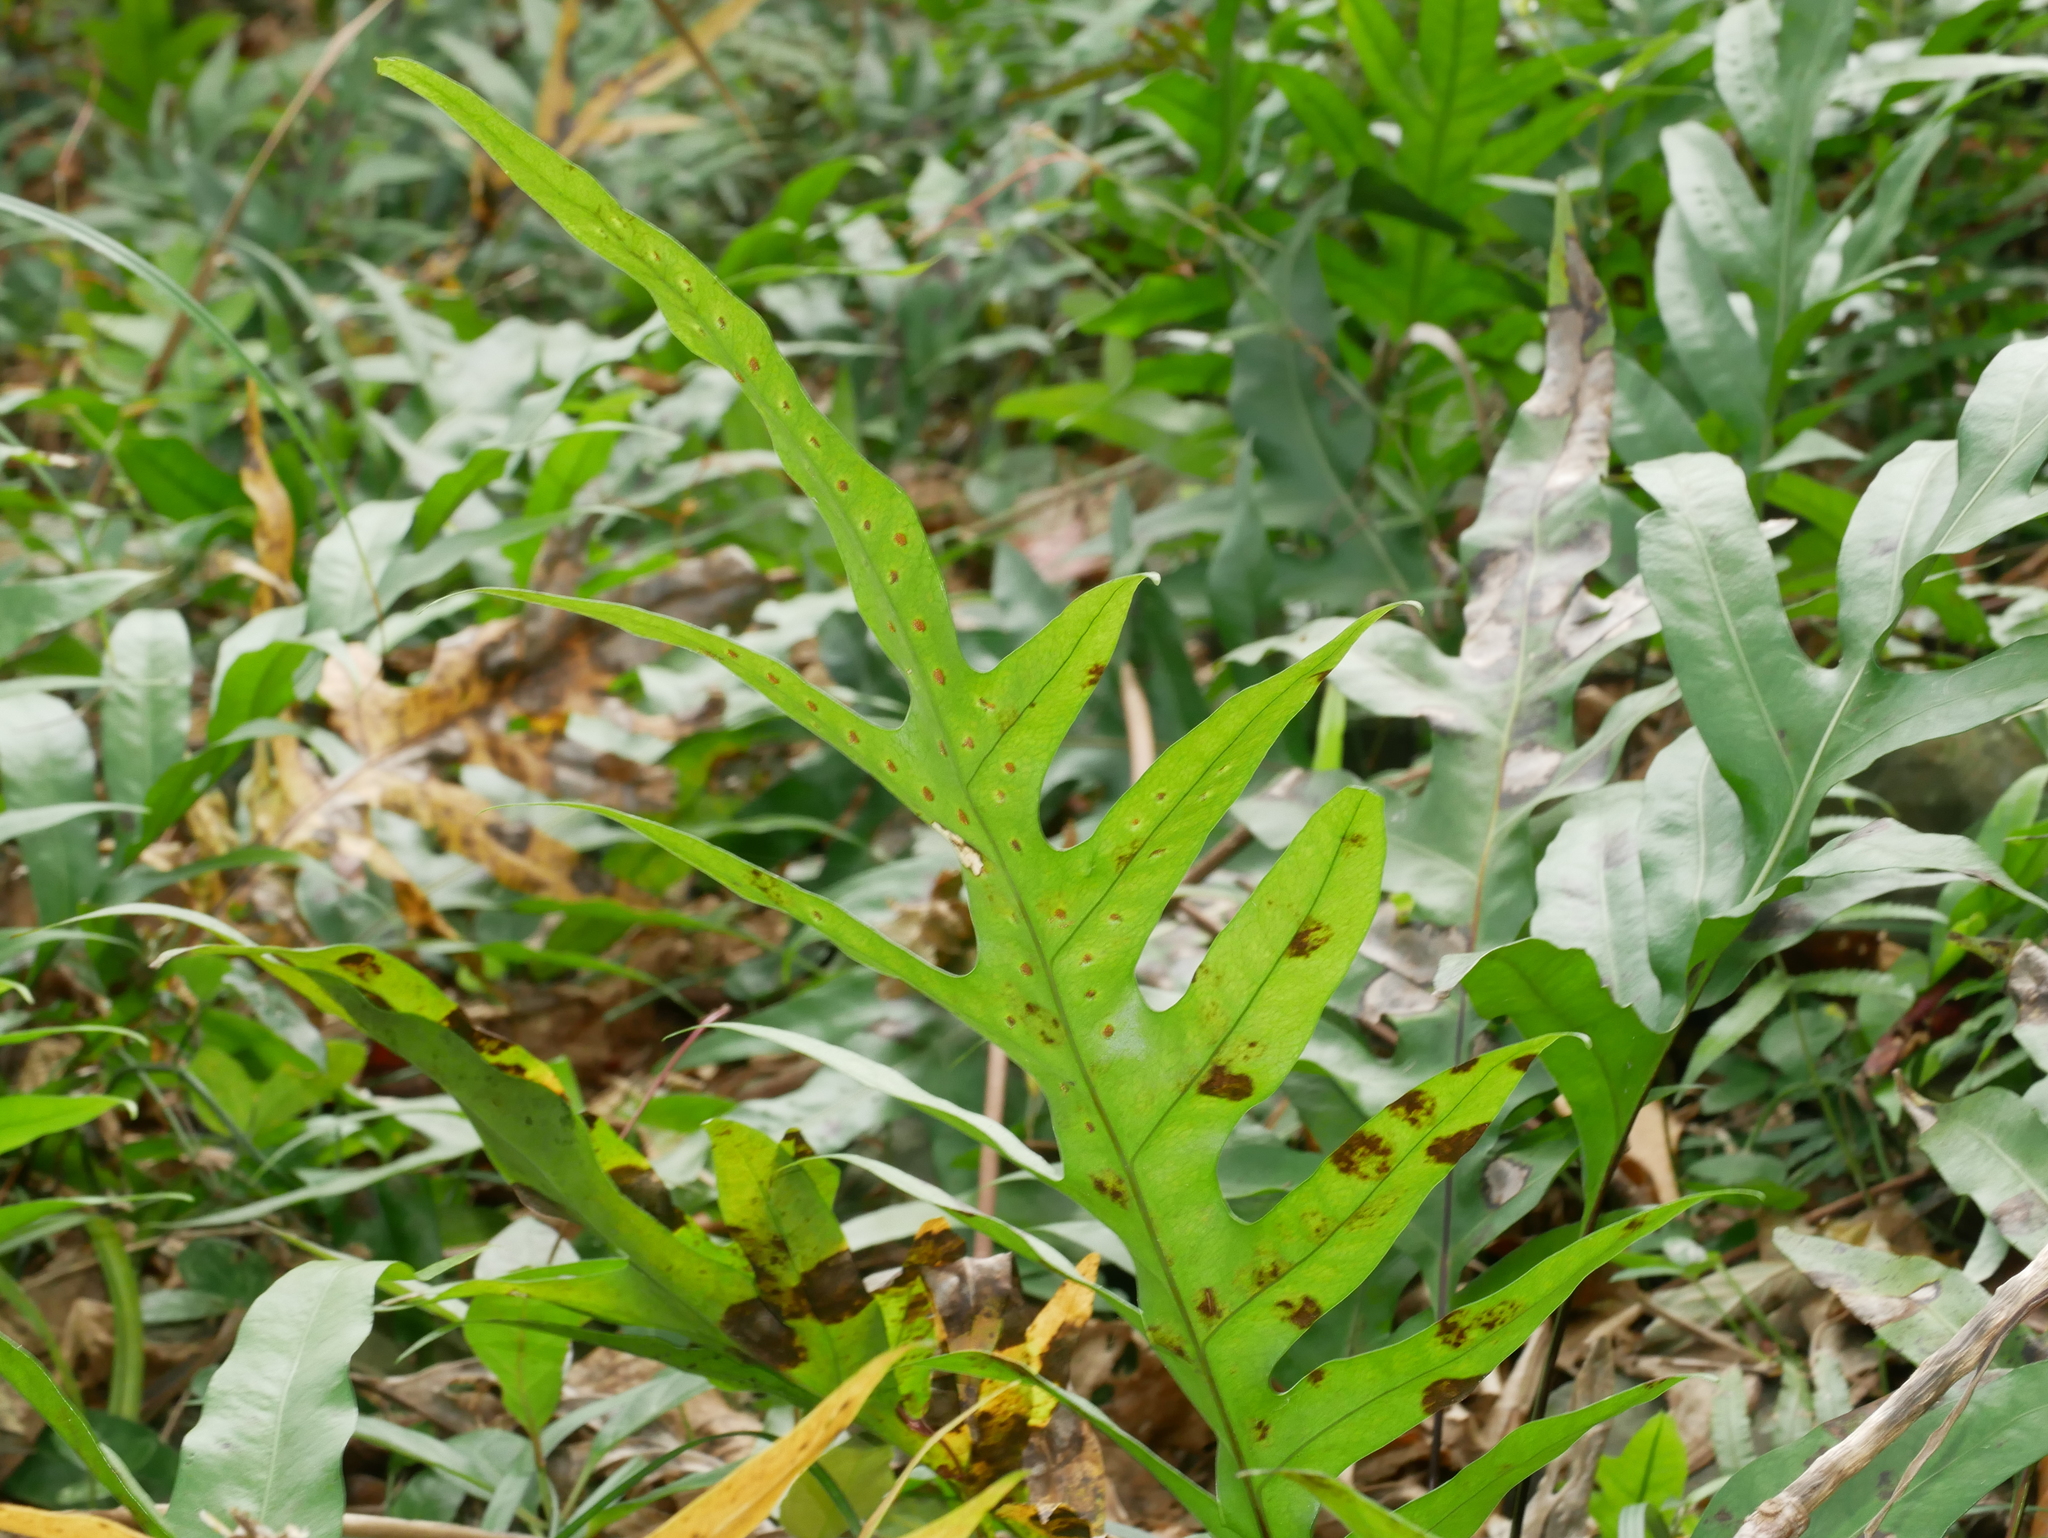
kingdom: Plantae
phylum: Tracheophyta
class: Polypodiopsida
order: Polypodiales
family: Polypodiaceae
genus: Microsorum
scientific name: Microsorum scolopendria
